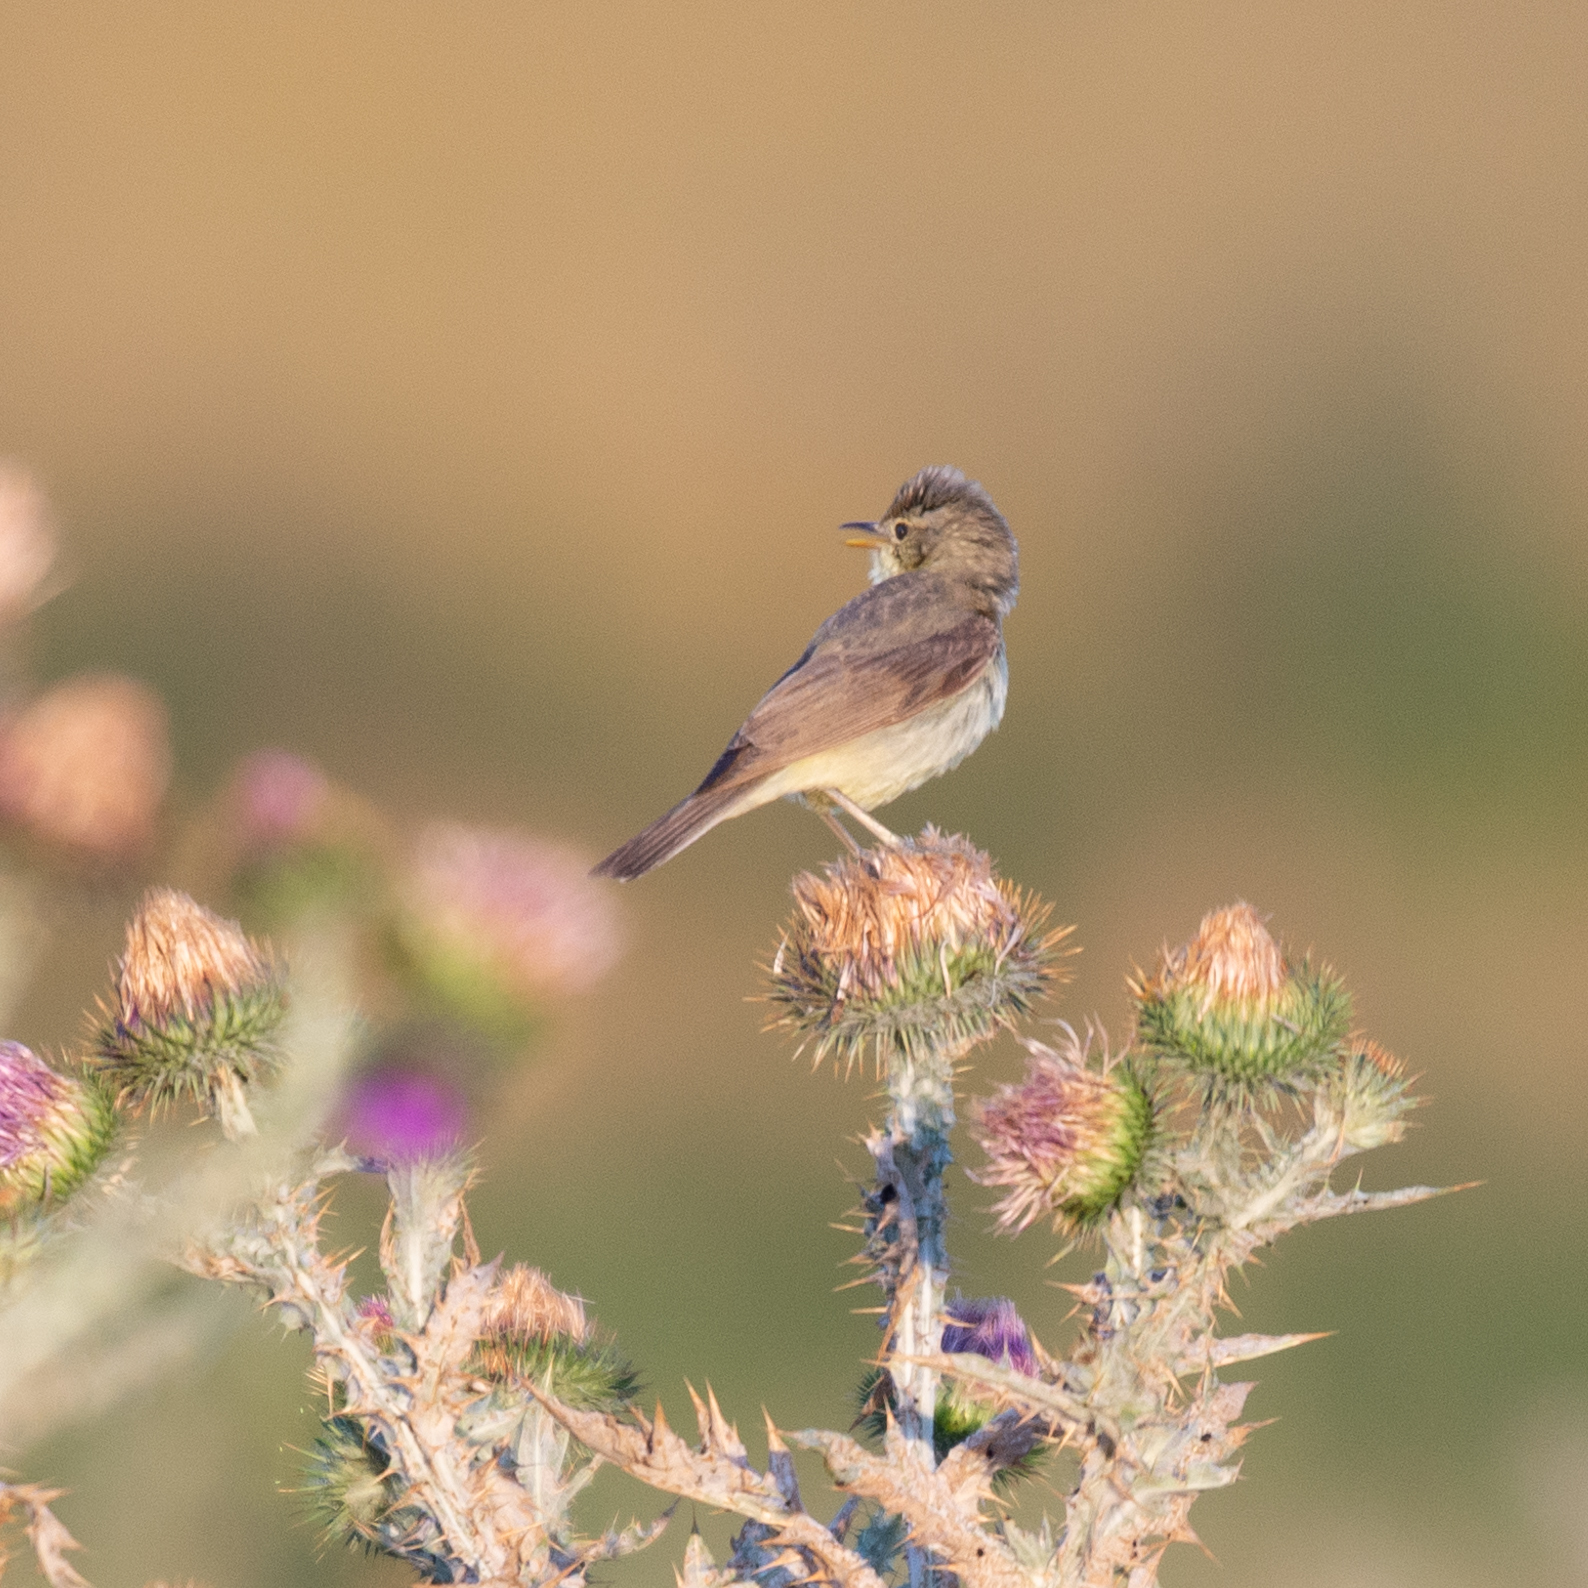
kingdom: Animalia
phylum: Chordata
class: Aves
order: Passeriformes
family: Acrocephalidae
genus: Hippolais
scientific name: Hippolais polyglotta
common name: Melodious warbler
